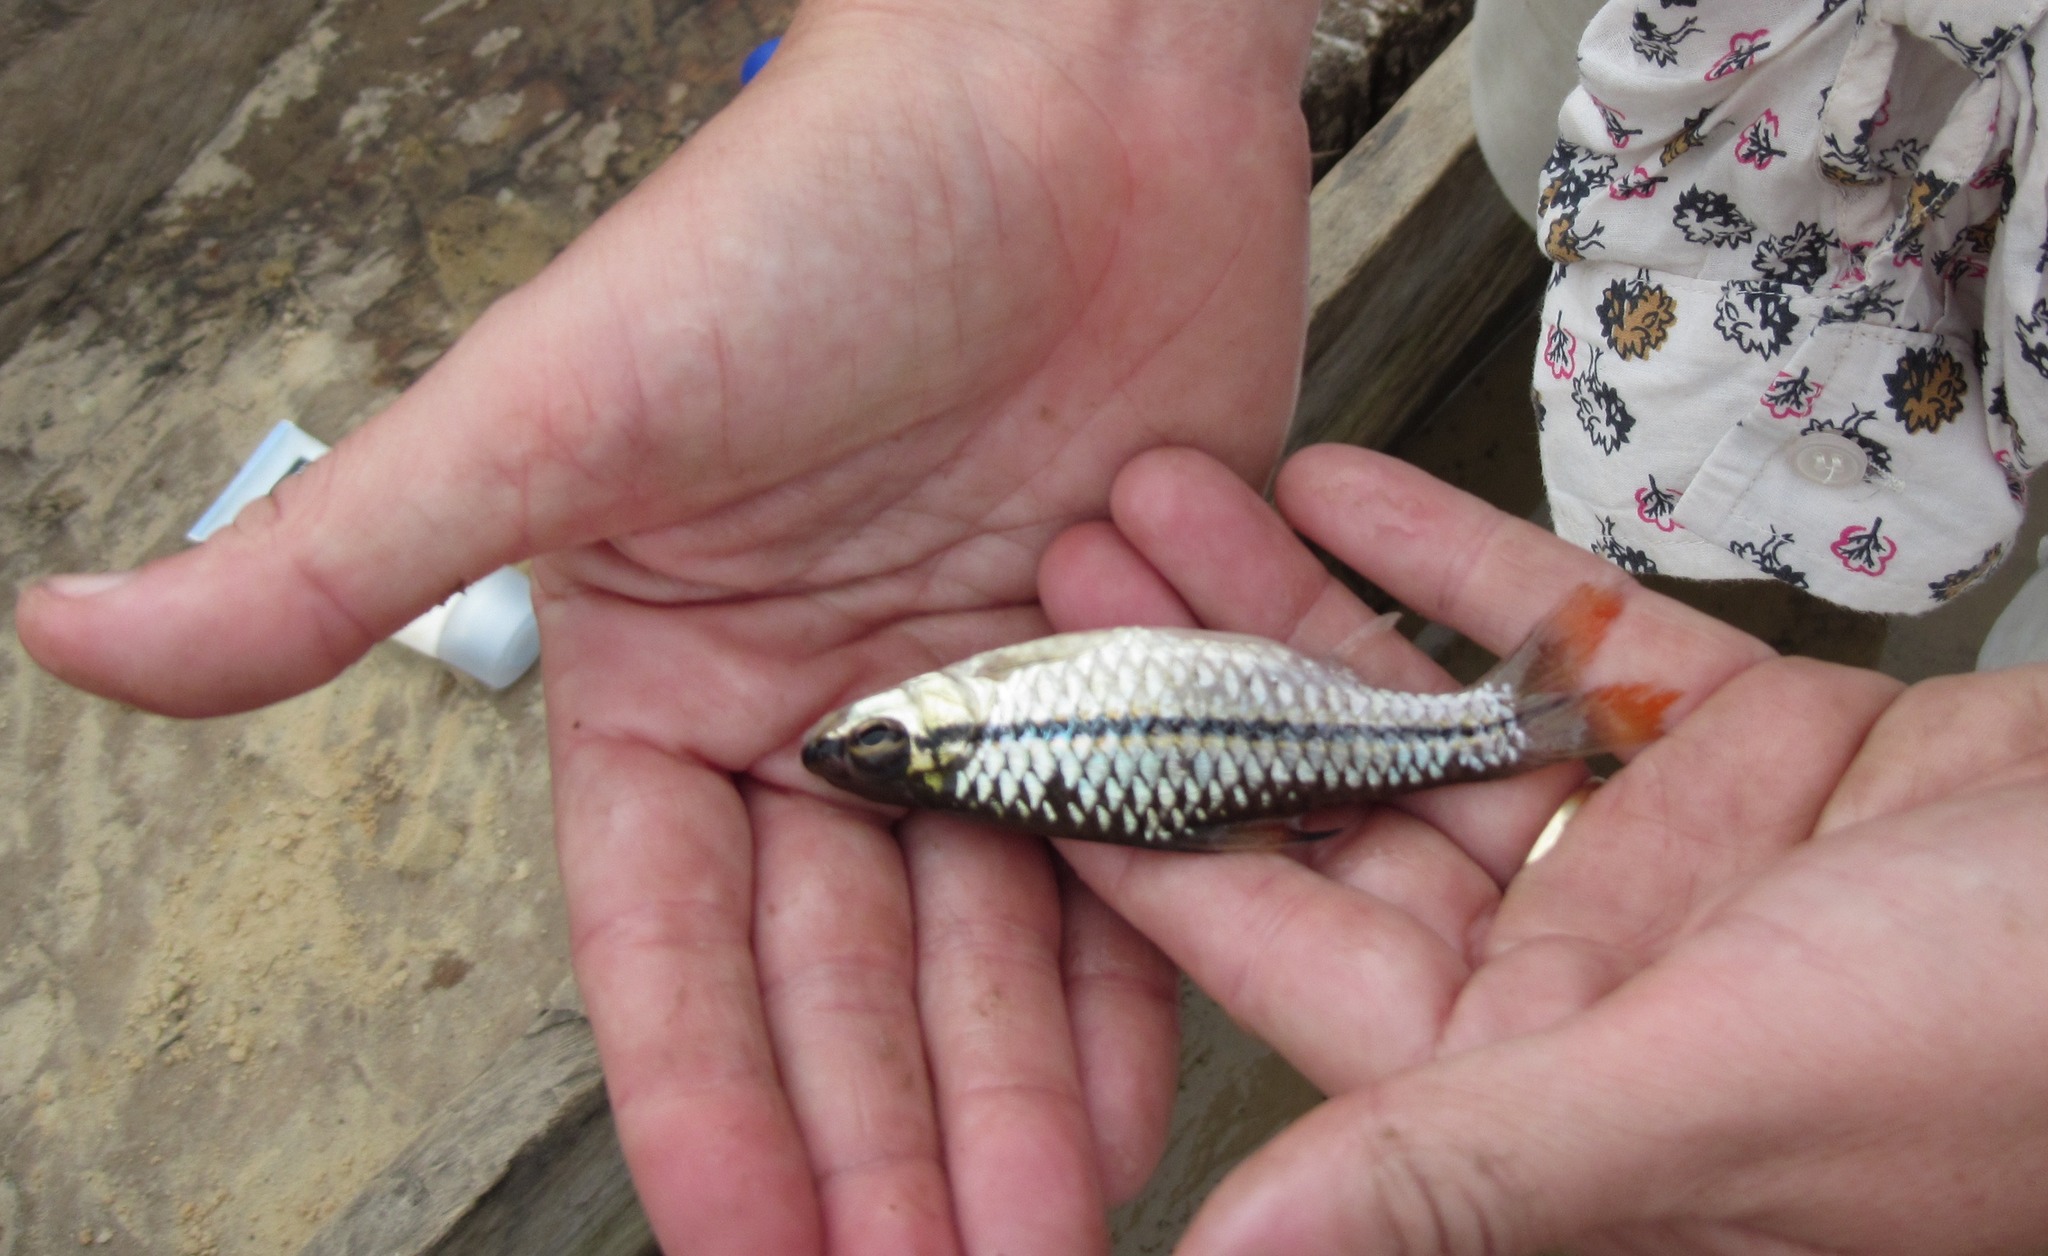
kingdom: Animalia
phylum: Chordata
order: Cypriniformes
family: Cyprinidae
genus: Enteromius
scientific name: Enteromius holotaenia
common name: Spotscale barb
